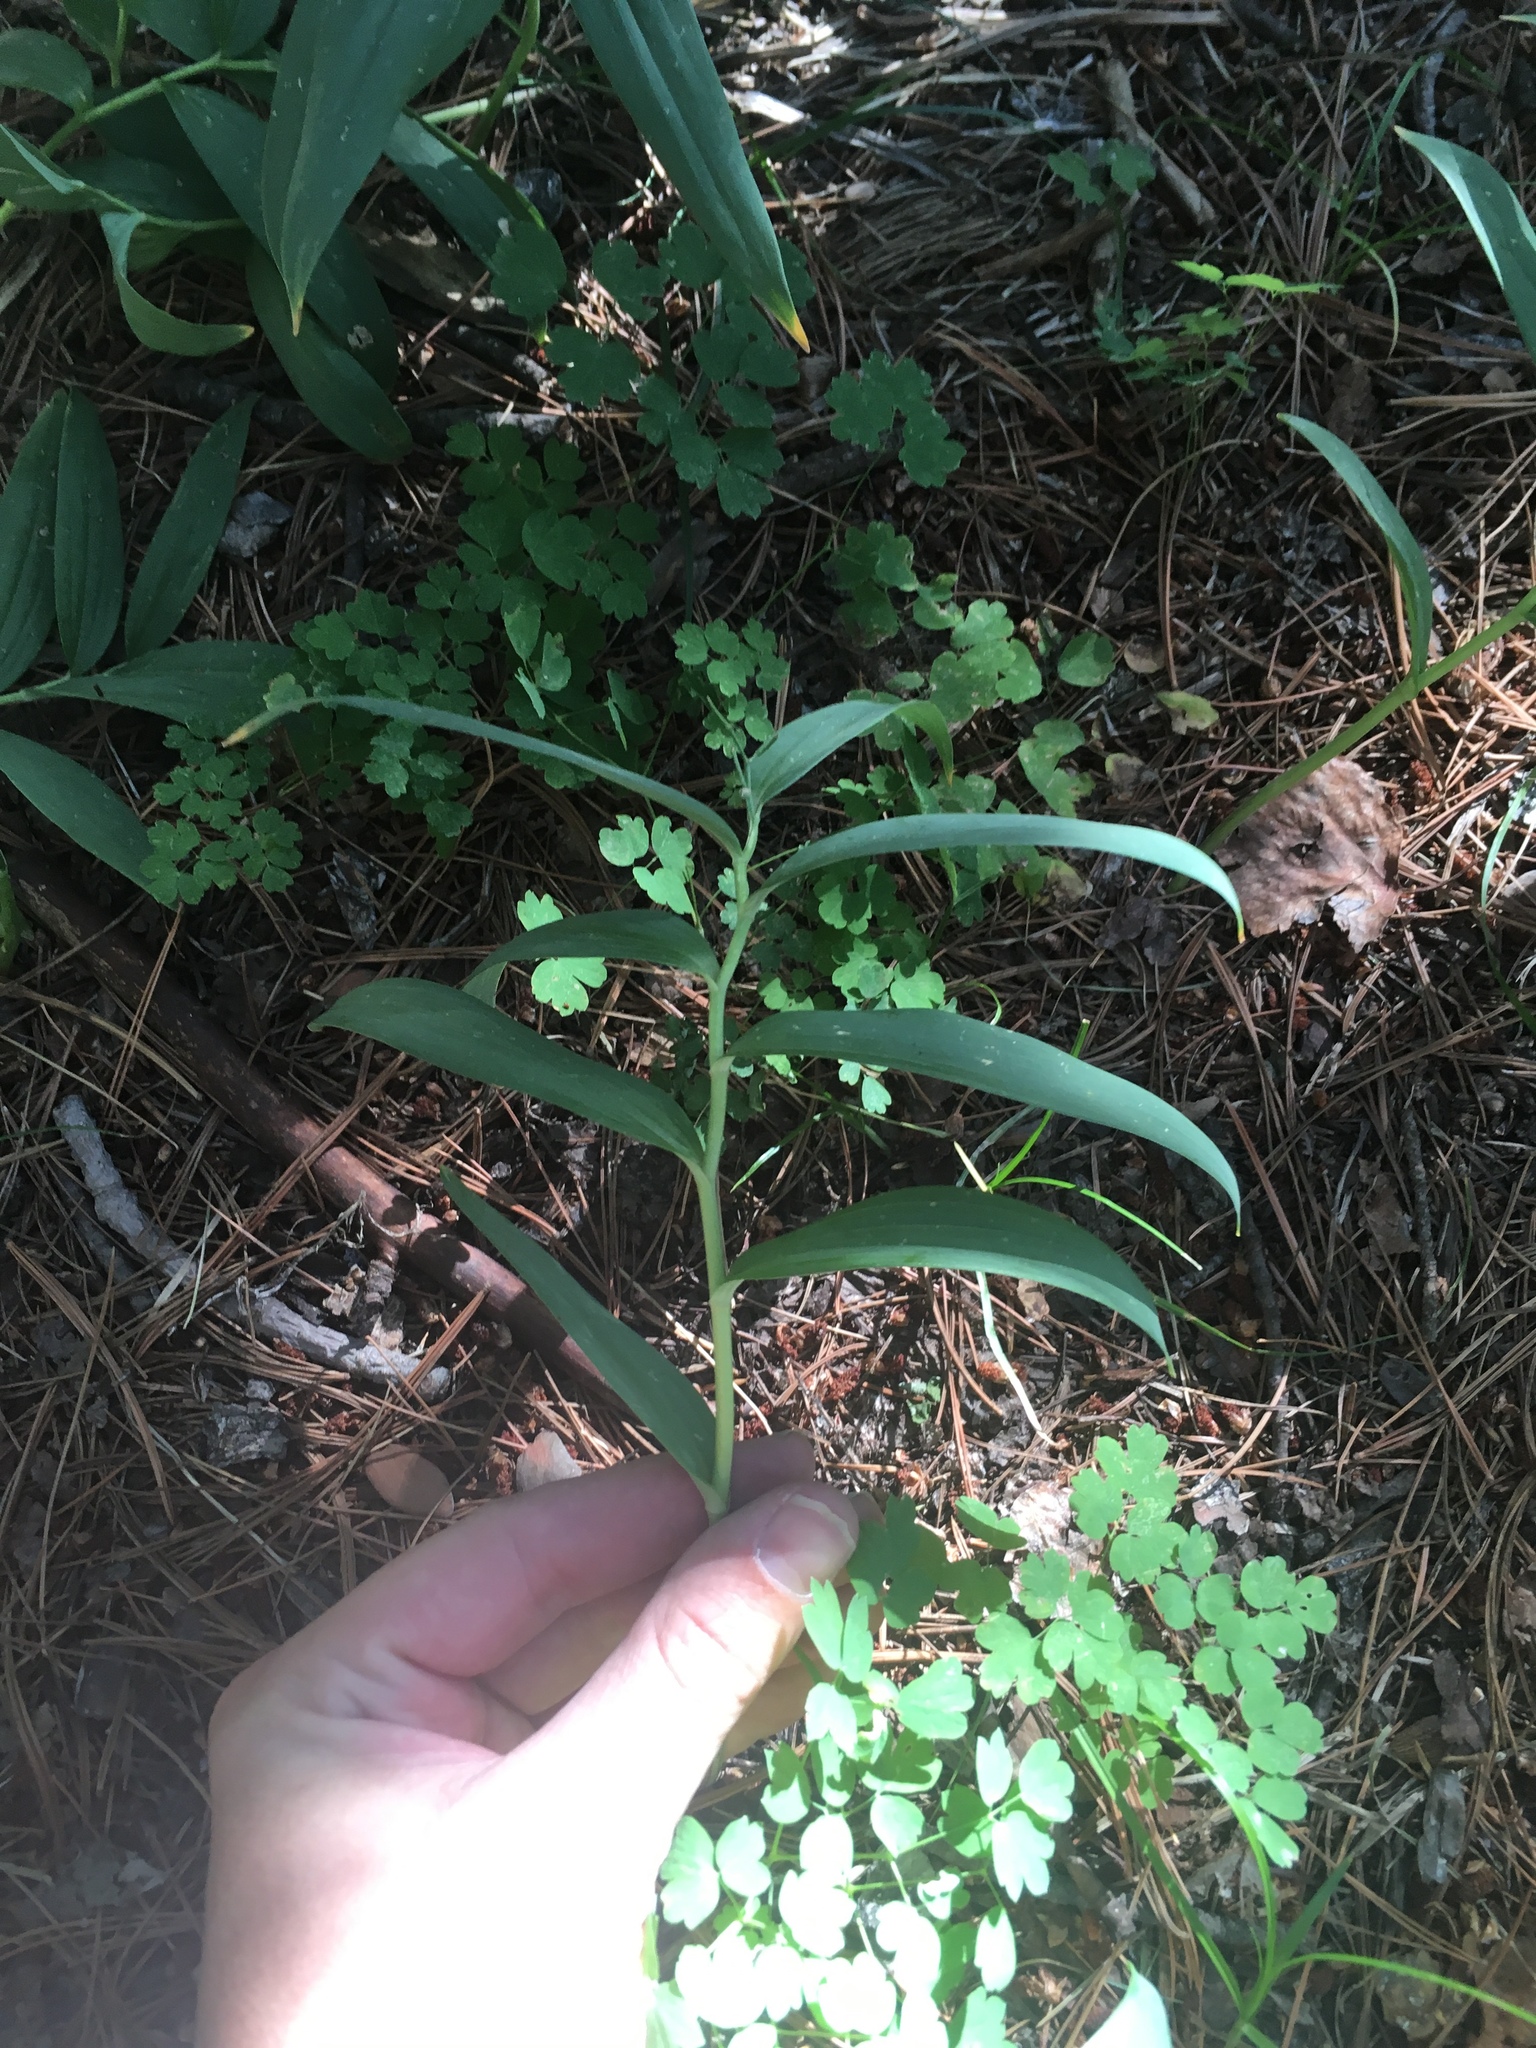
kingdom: Plantae
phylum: Tracheophyta
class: Liliopsida
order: Asparagales
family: Asparagaceae
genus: Maianthemum
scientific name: Maianthemum stellatum
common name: Little false solomon's seal
